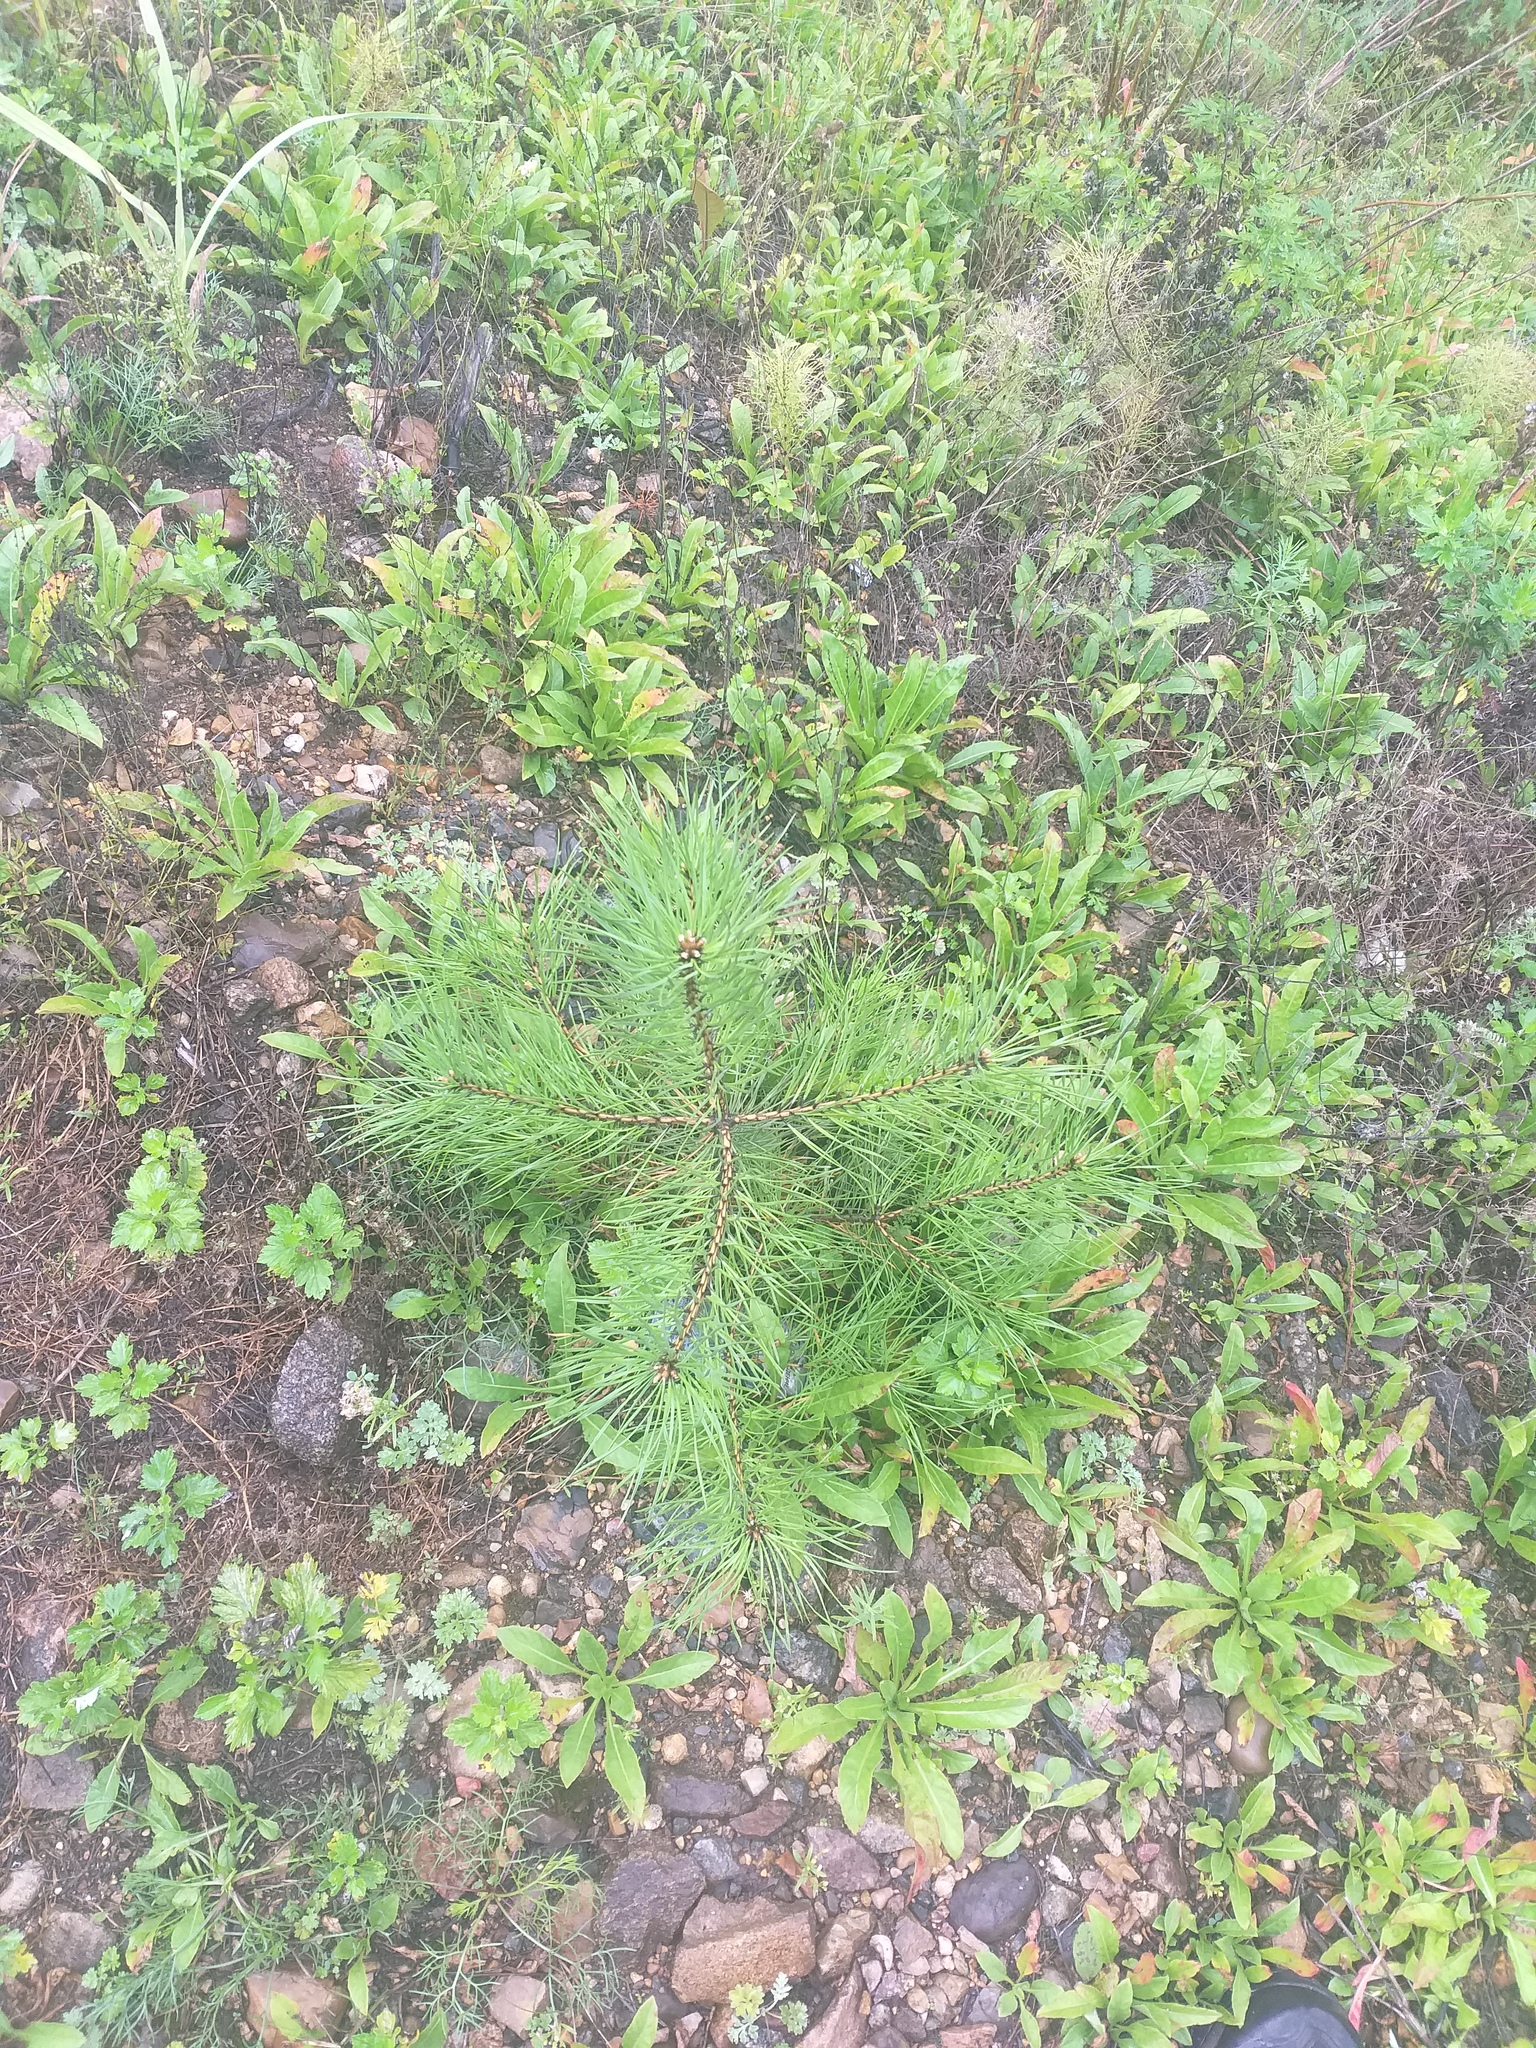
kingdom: Plantae
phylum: Tracheophyta
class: Pinopsida
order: Pinales
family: Pinaceae
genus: Pinus
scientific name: Pinus sylvestris
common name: Scots pine
